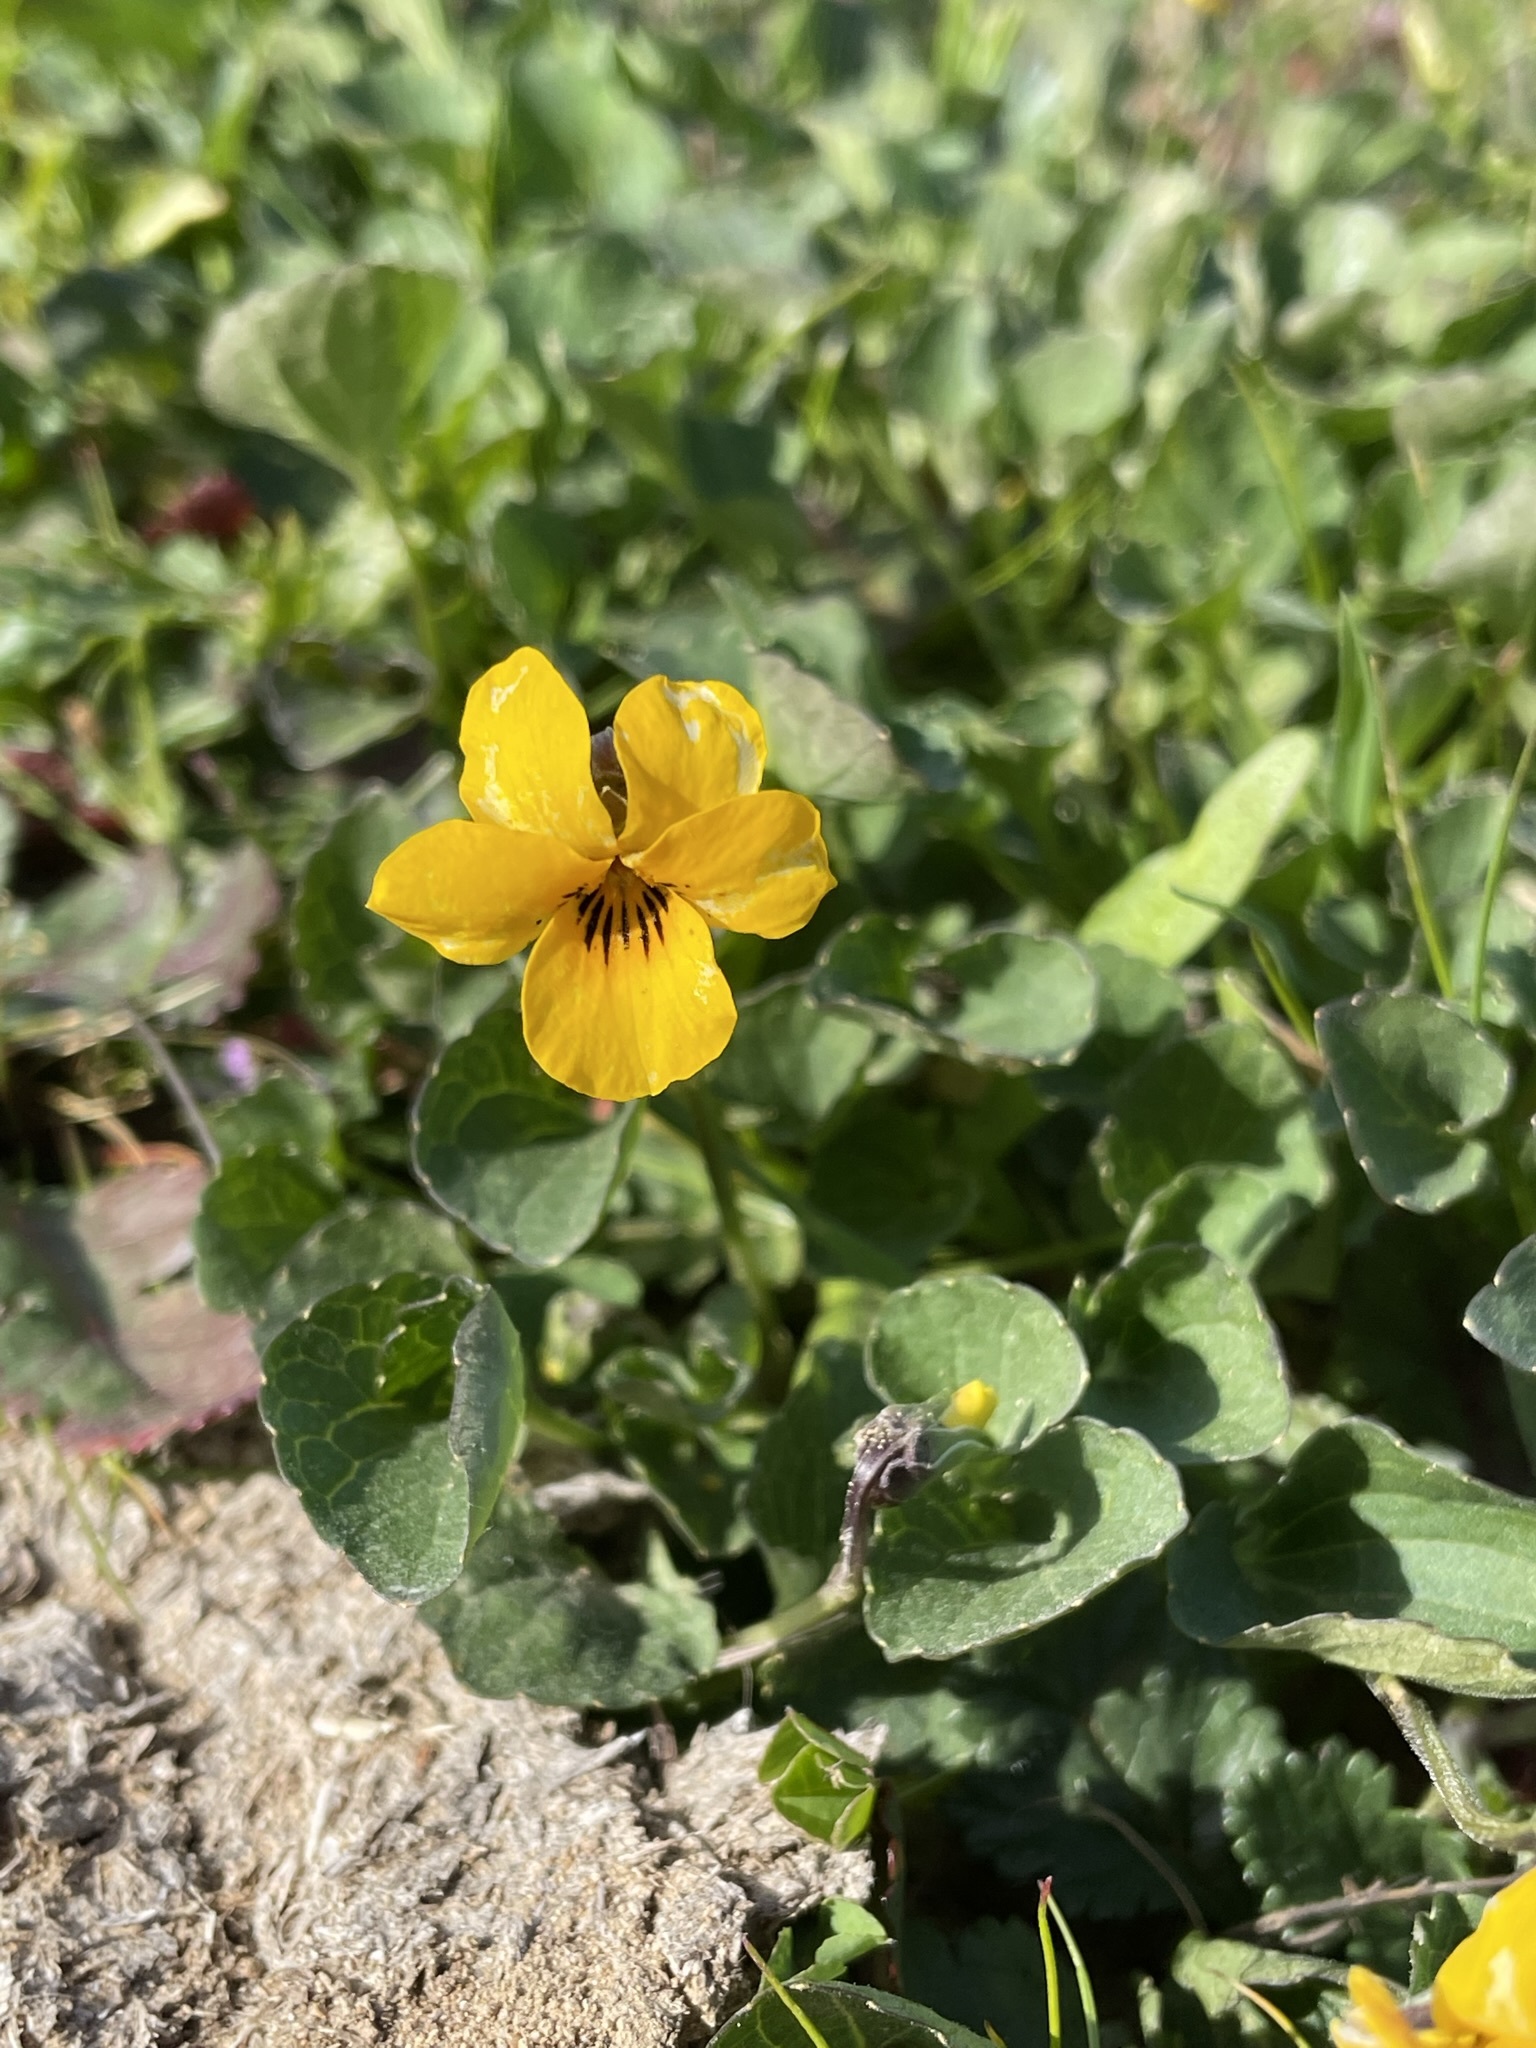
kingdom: Plantae
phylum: Tracheophyta
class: Magnoliopsida
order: Malpighiales
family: Violaceae
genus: Viola
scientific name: Viola pedunculata
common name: California golden violet
